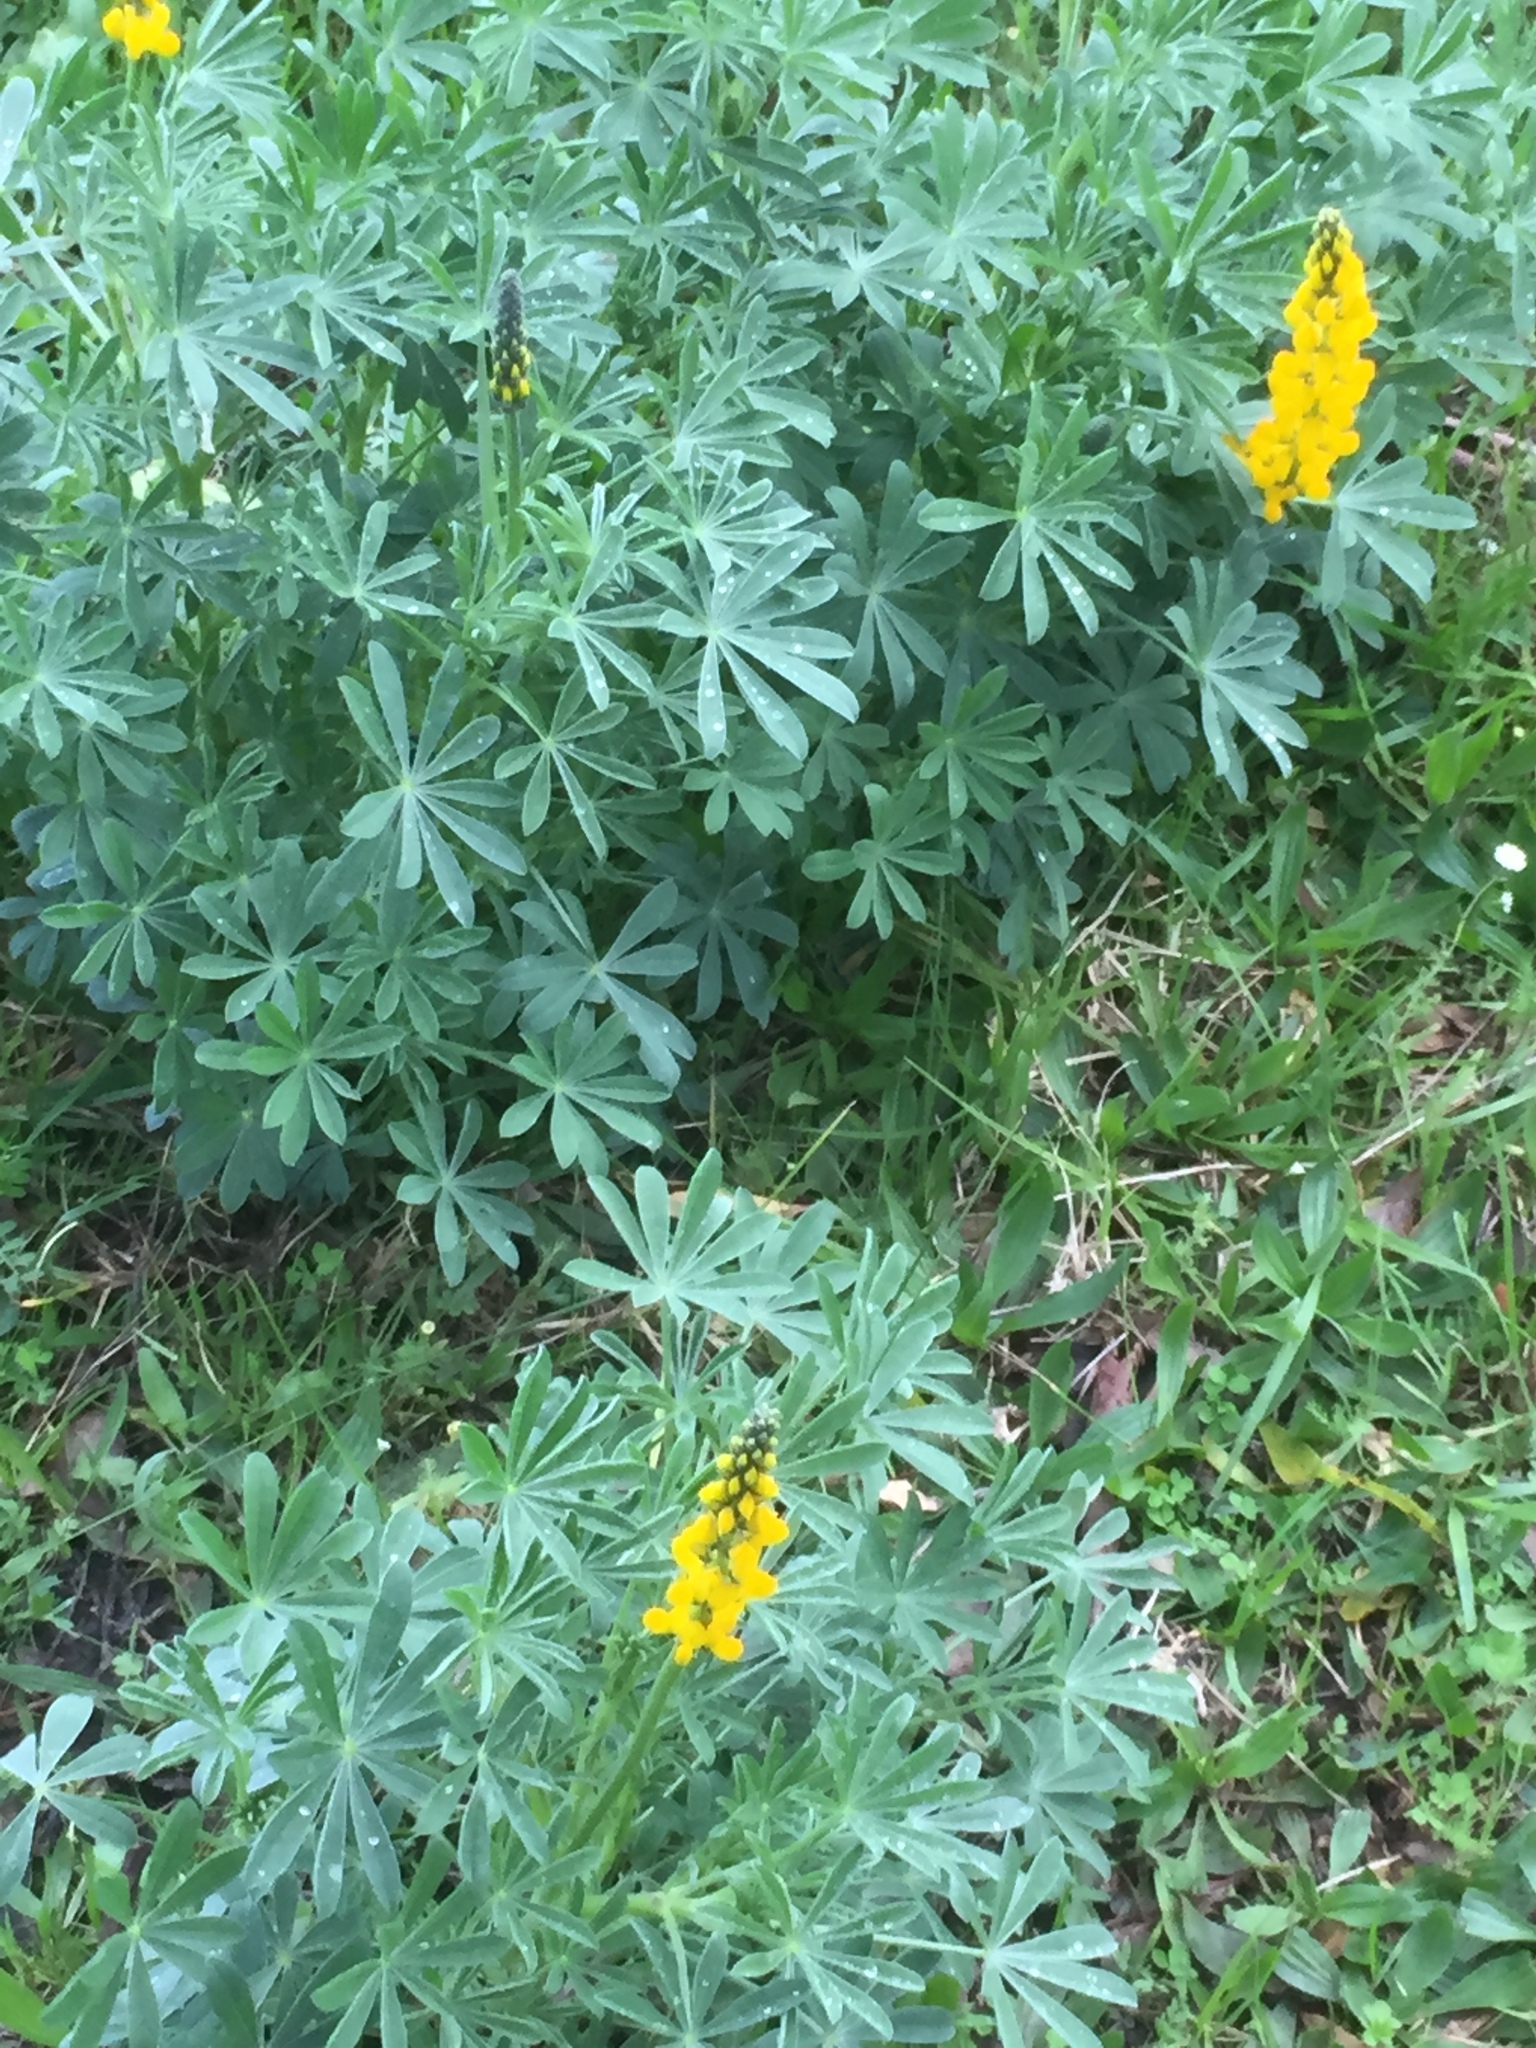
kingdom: Plantae
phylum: Tracheophyta
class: Magnoliopsida
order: Fabales
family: Fabaceae
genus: Lupinus
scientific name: Lupinus luteus
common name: European yellow lupine
